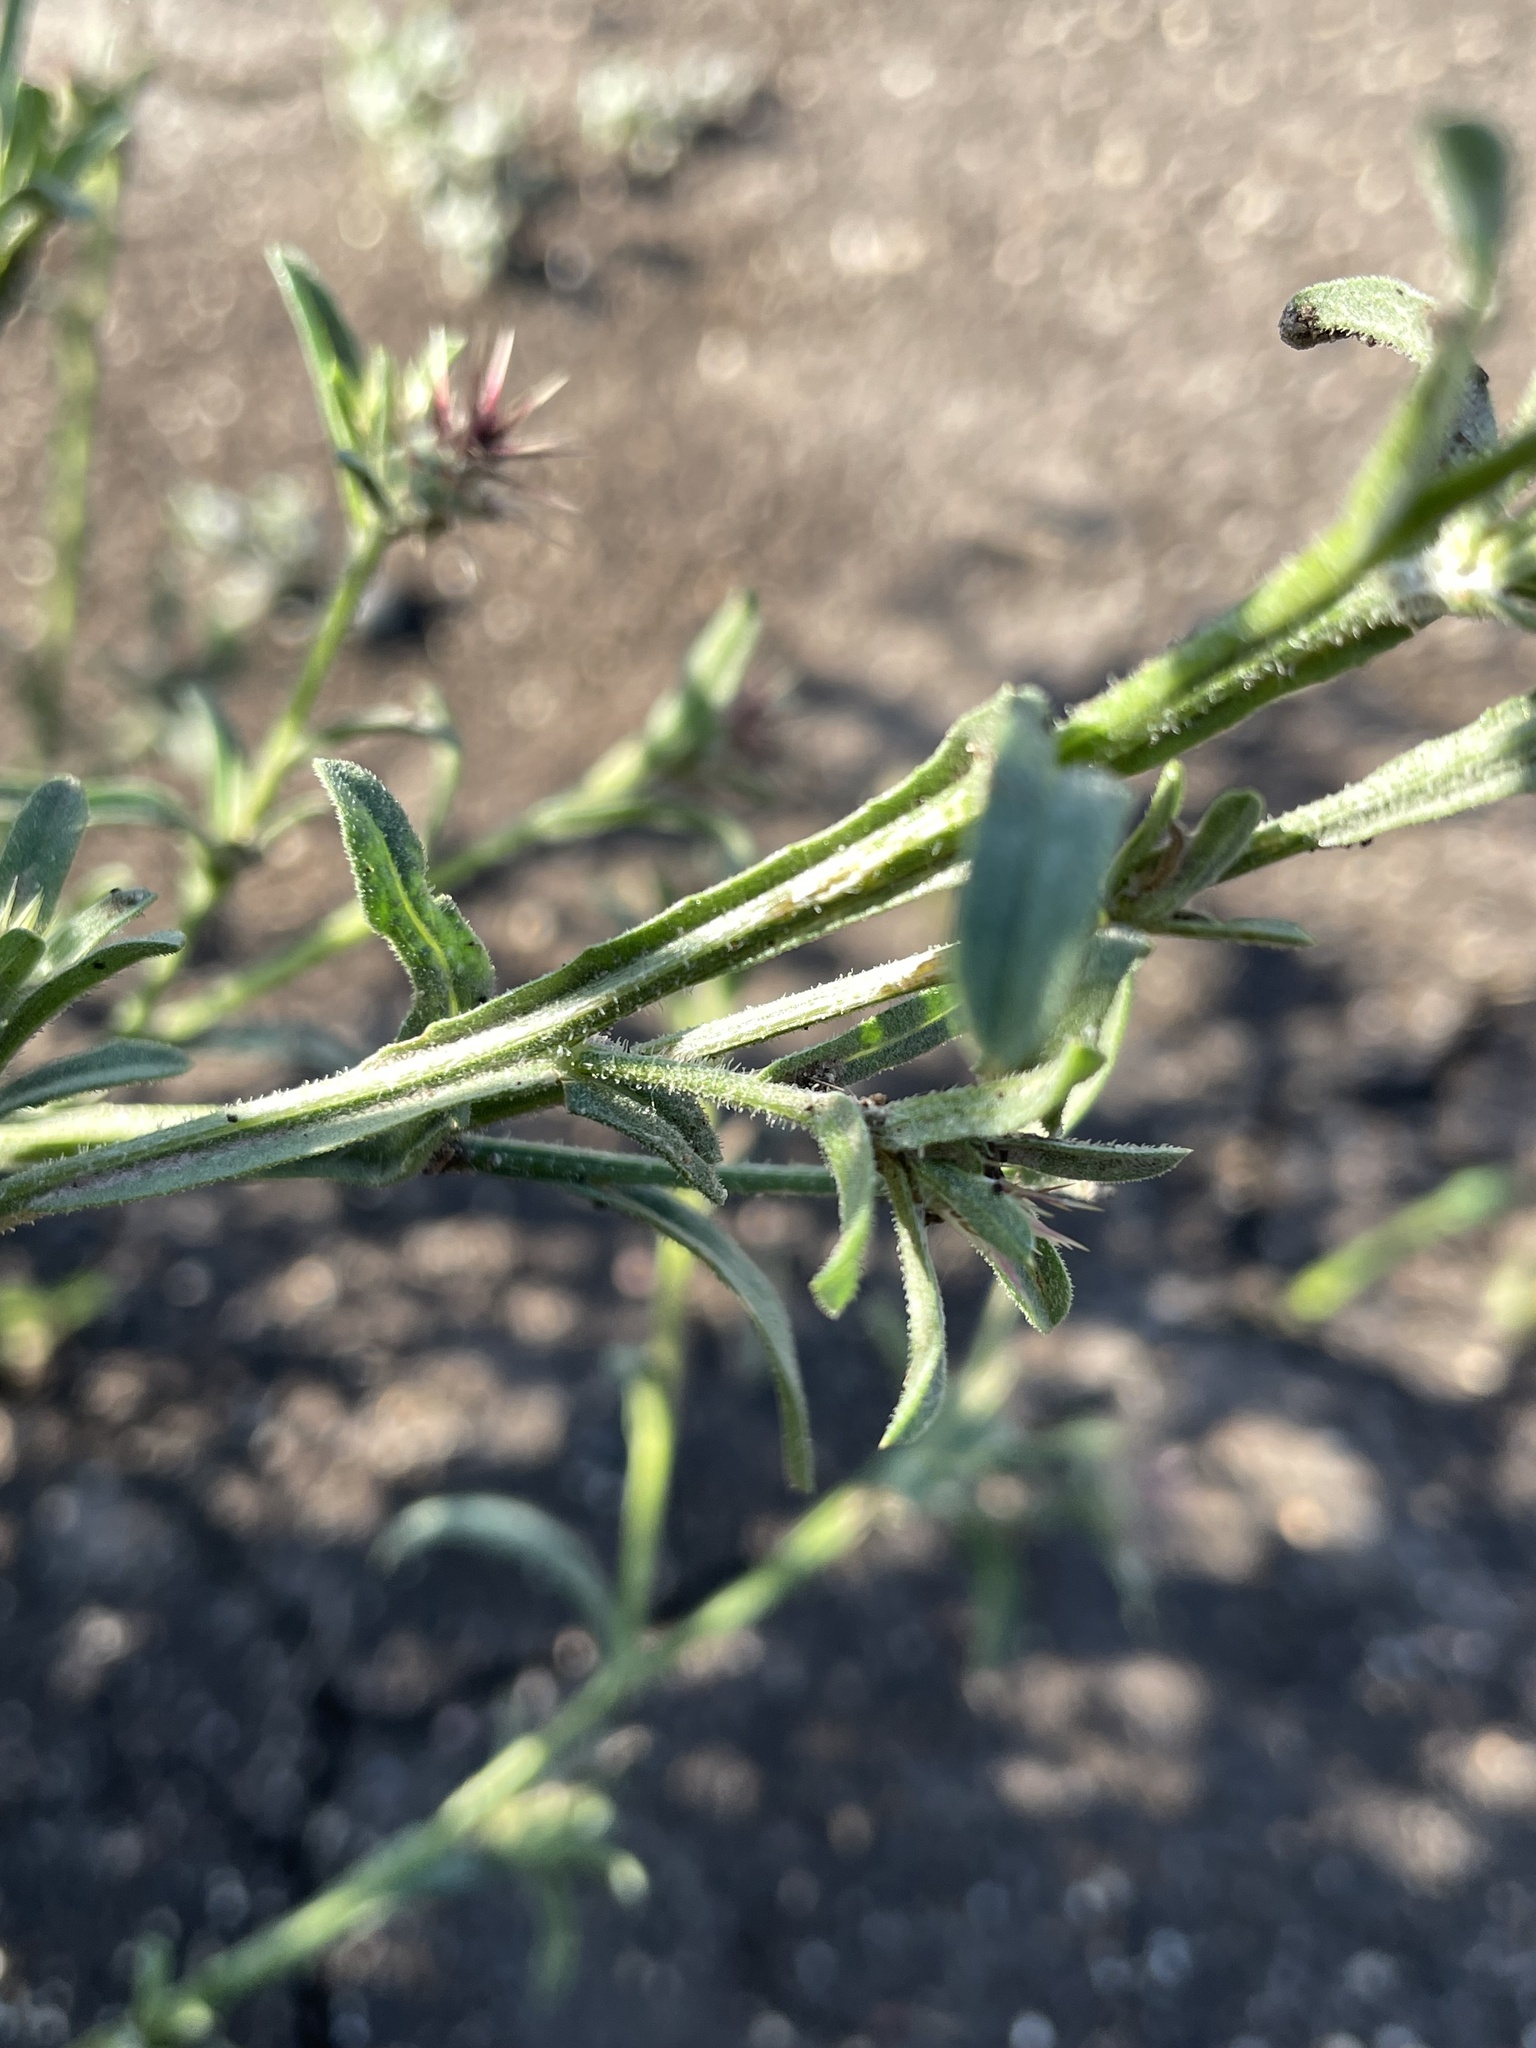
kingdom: Plantae
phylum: Tracheophyta
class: Magnoliopsida
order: Asterales
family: Asteraceae
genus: Centaurea
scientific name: Centaurea melitensis
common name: Maltese star-thistle
